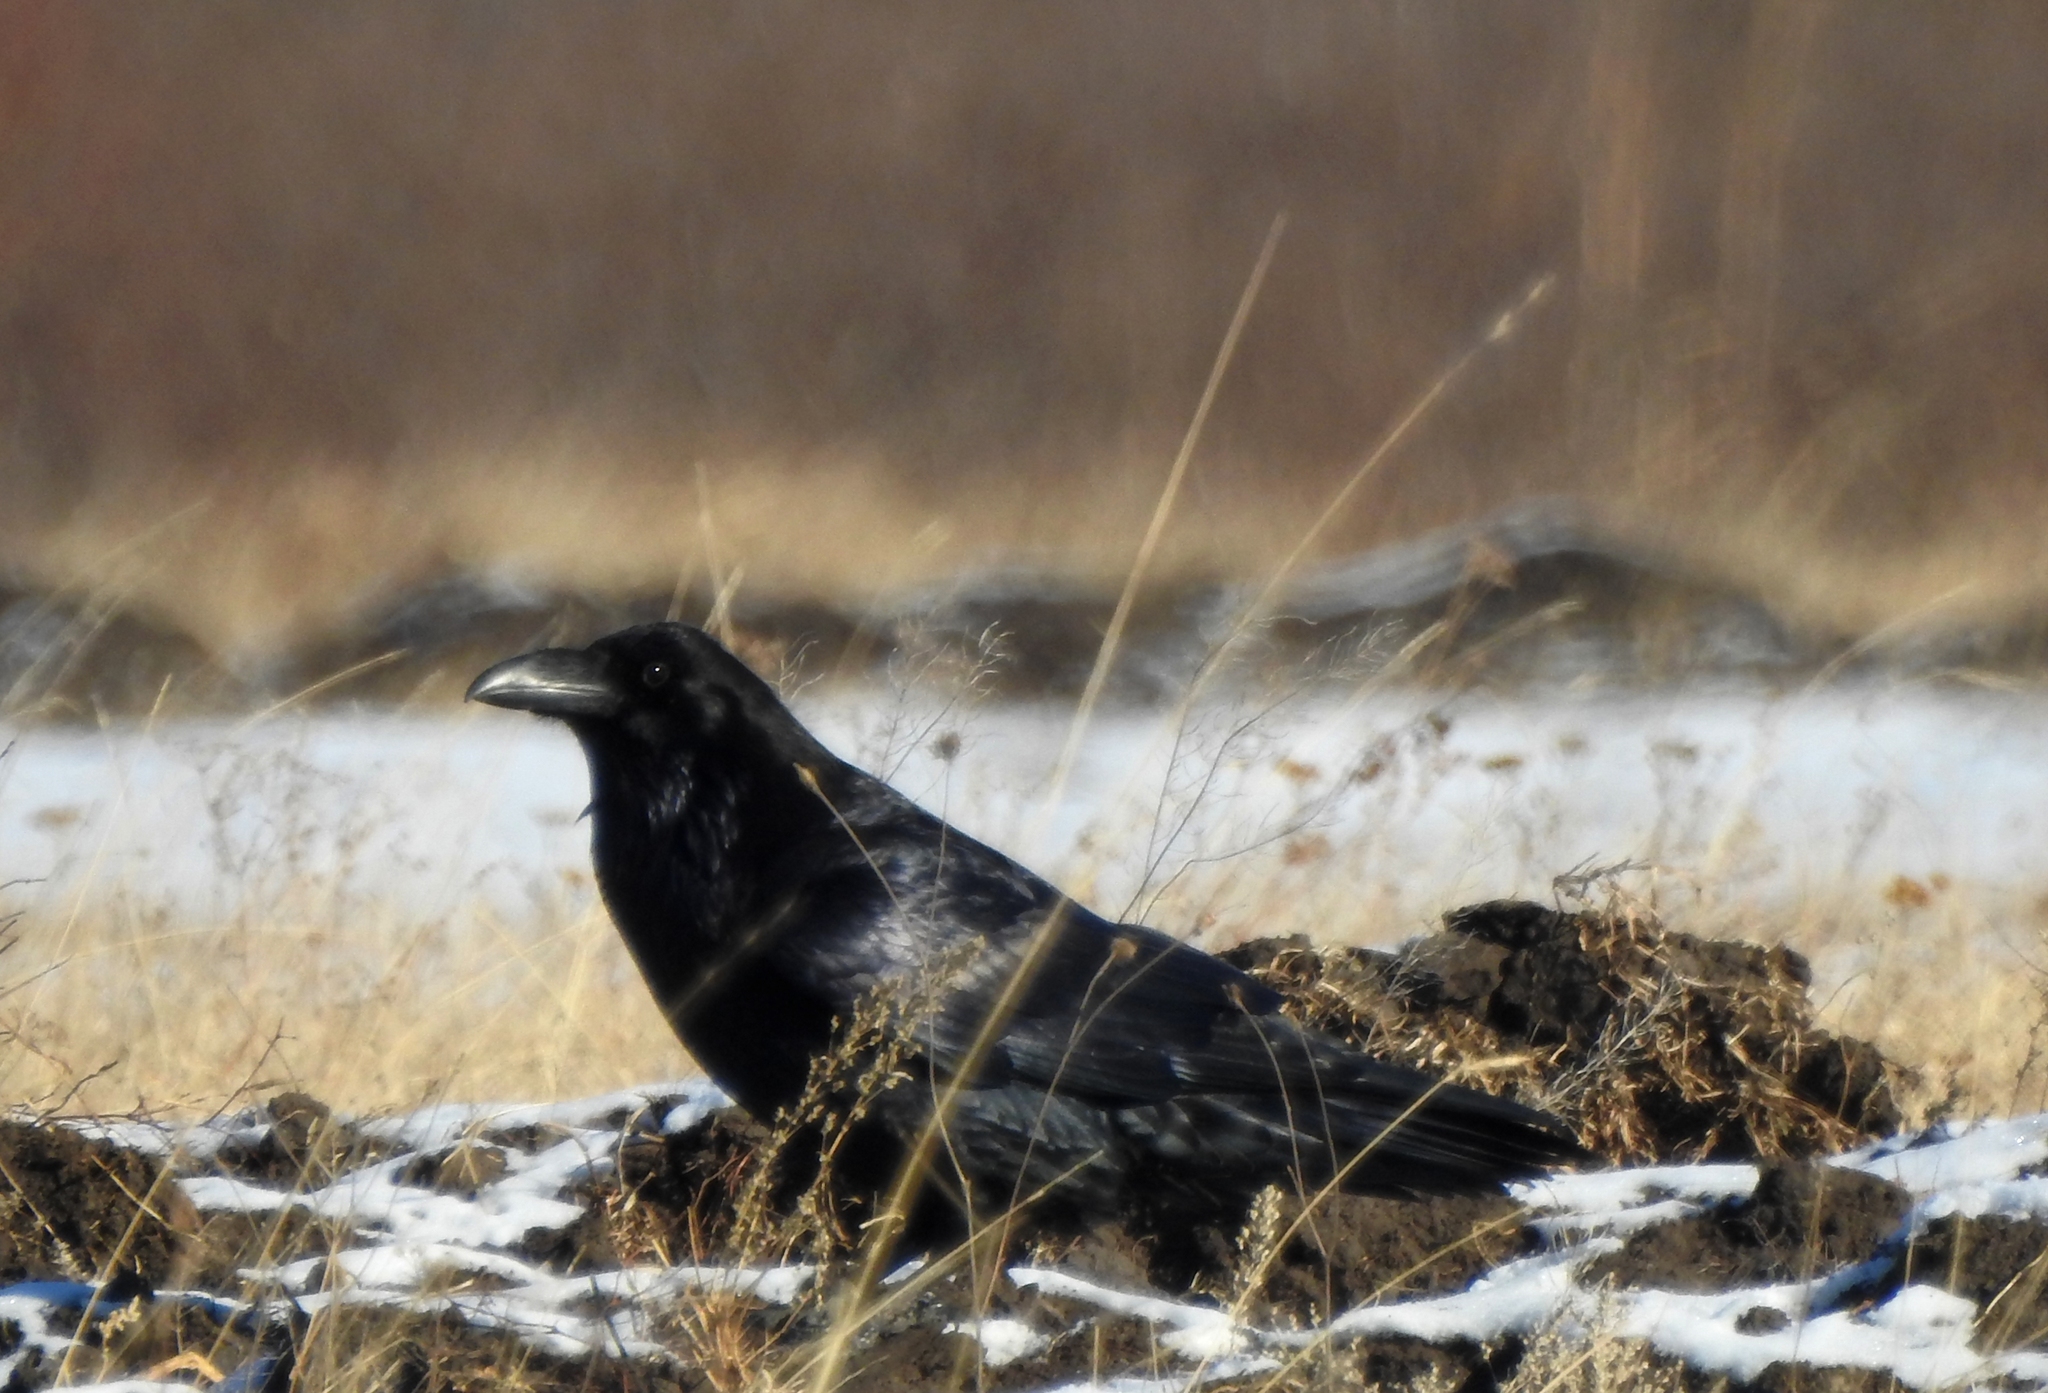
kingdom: Animalia
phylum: Chordata
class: Aves
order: Passeriformes
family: Corvidae
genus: Corvus
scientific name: Corvus corax
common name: Common raven
